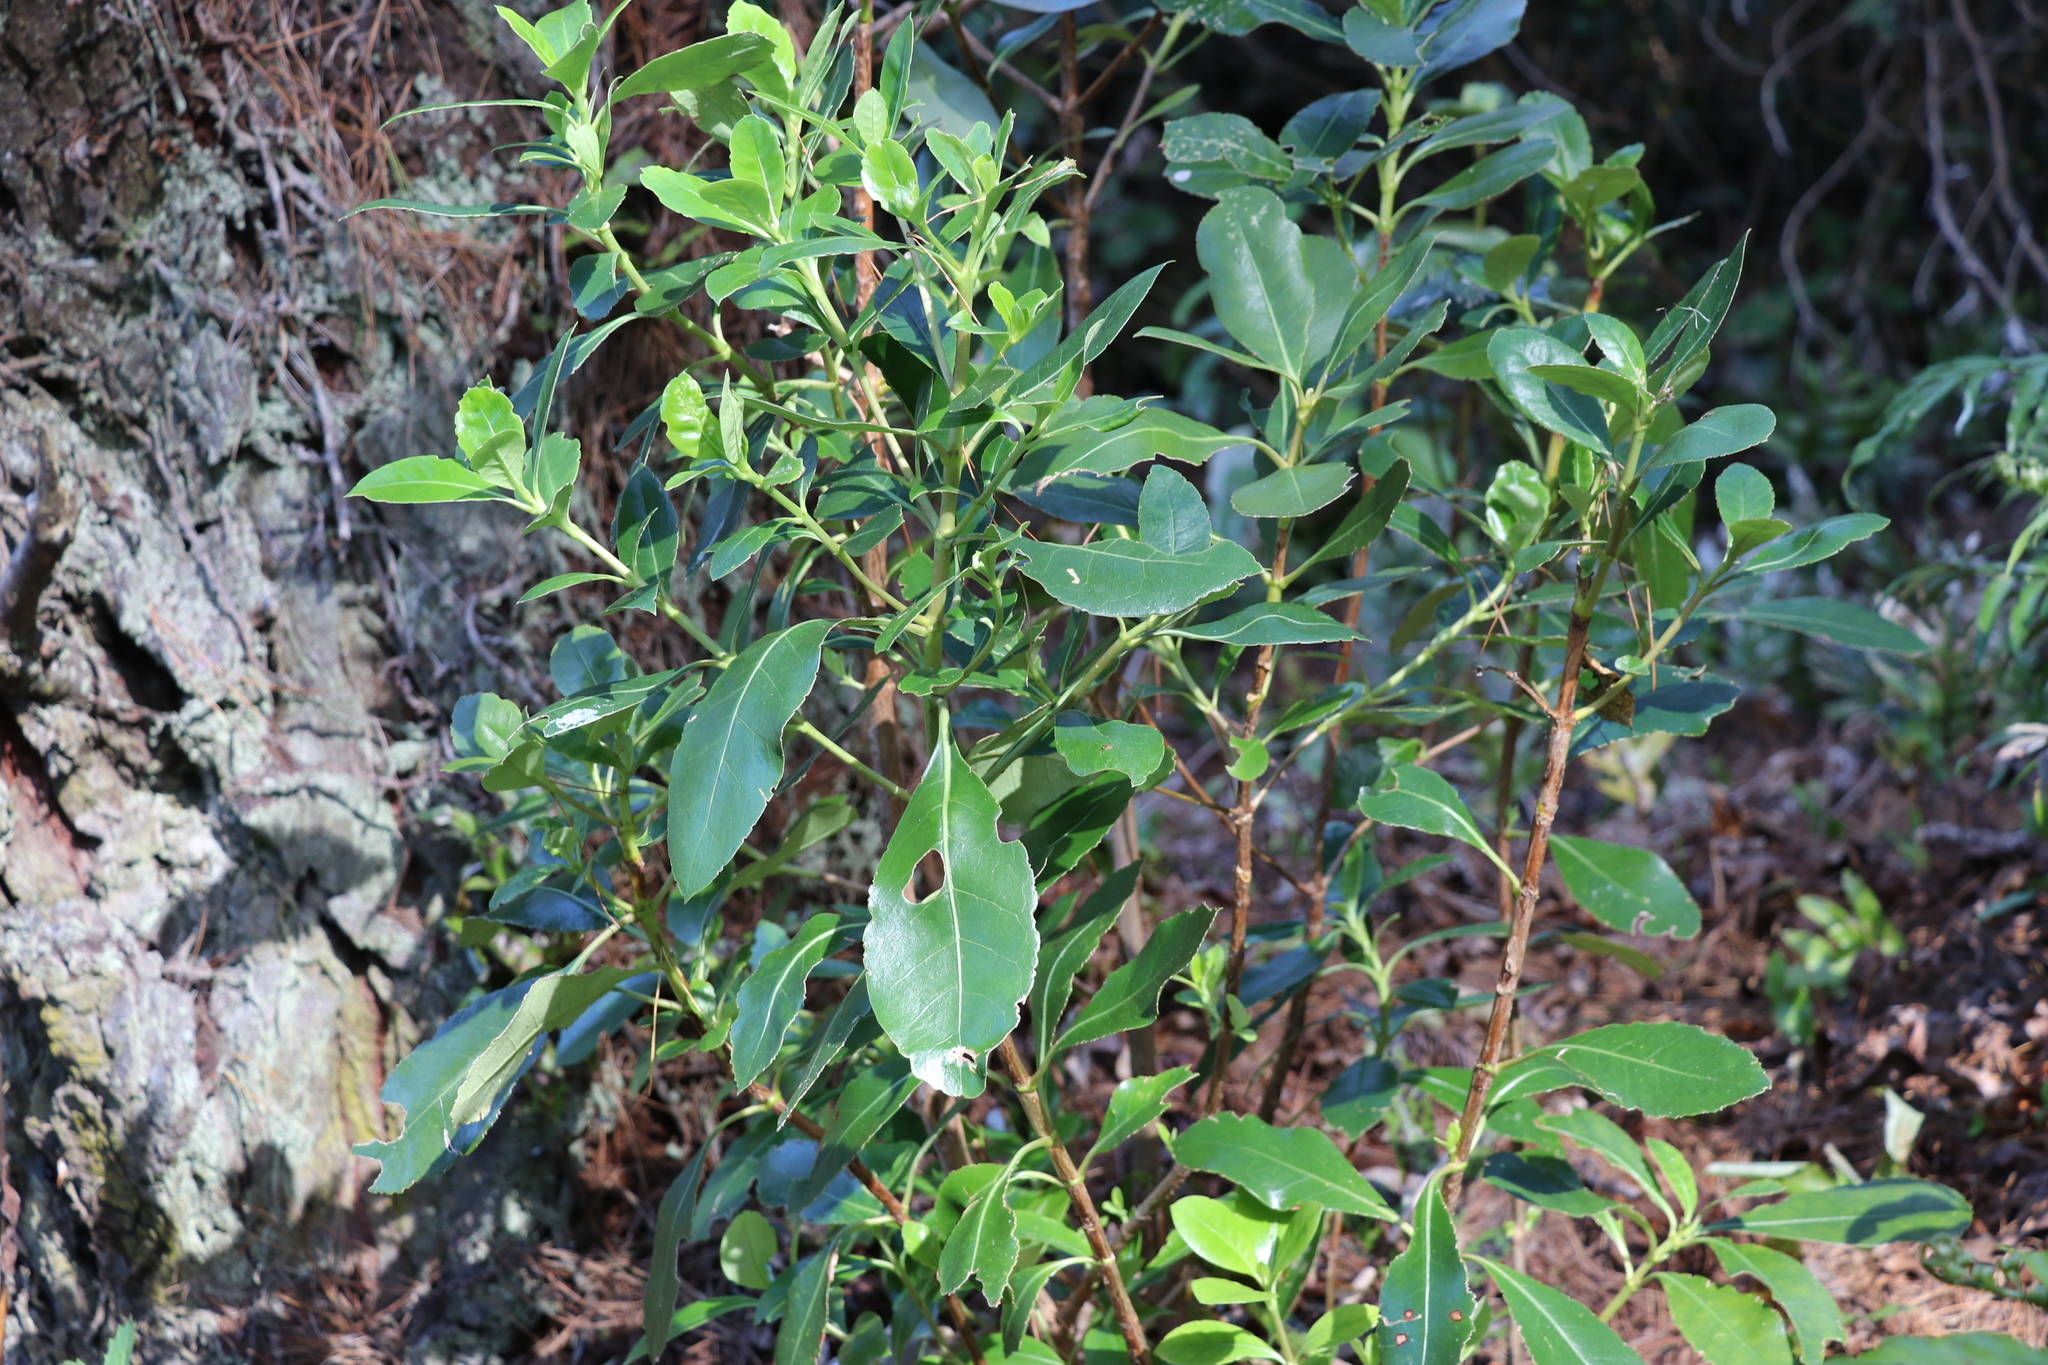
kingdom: Plantae
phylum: Tracheophyta
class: Magnoliopsida
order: Gentianales
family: Rubiaceae
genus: Coprosma
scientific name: Coprosma lucida
